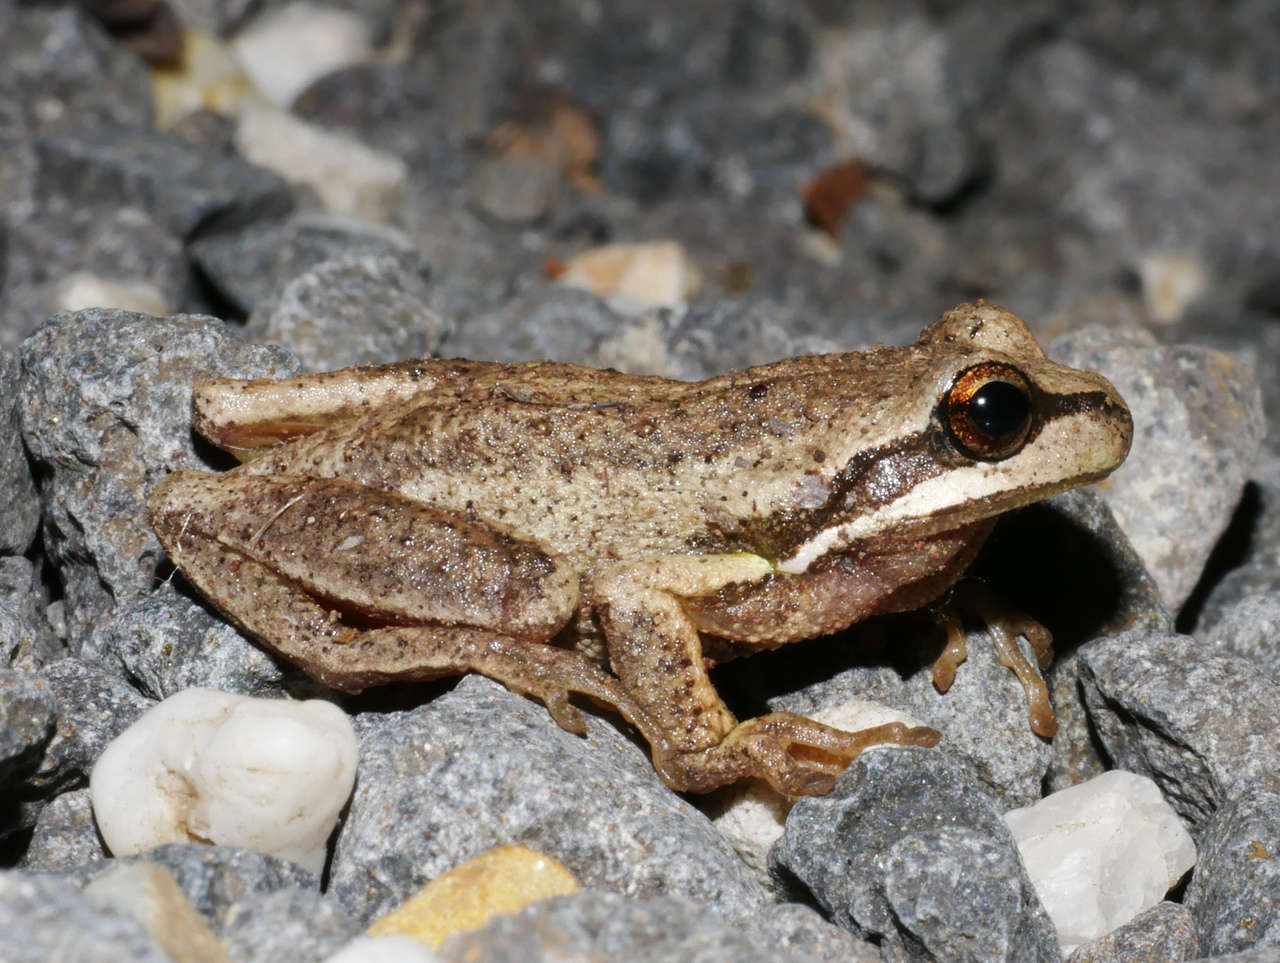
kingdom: Animalia
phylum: Chordata
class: Amphibia
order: Anura
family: Pelodryadidae
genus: Litoria
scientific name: Litoria ewingii
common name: Southern brown tree frog
